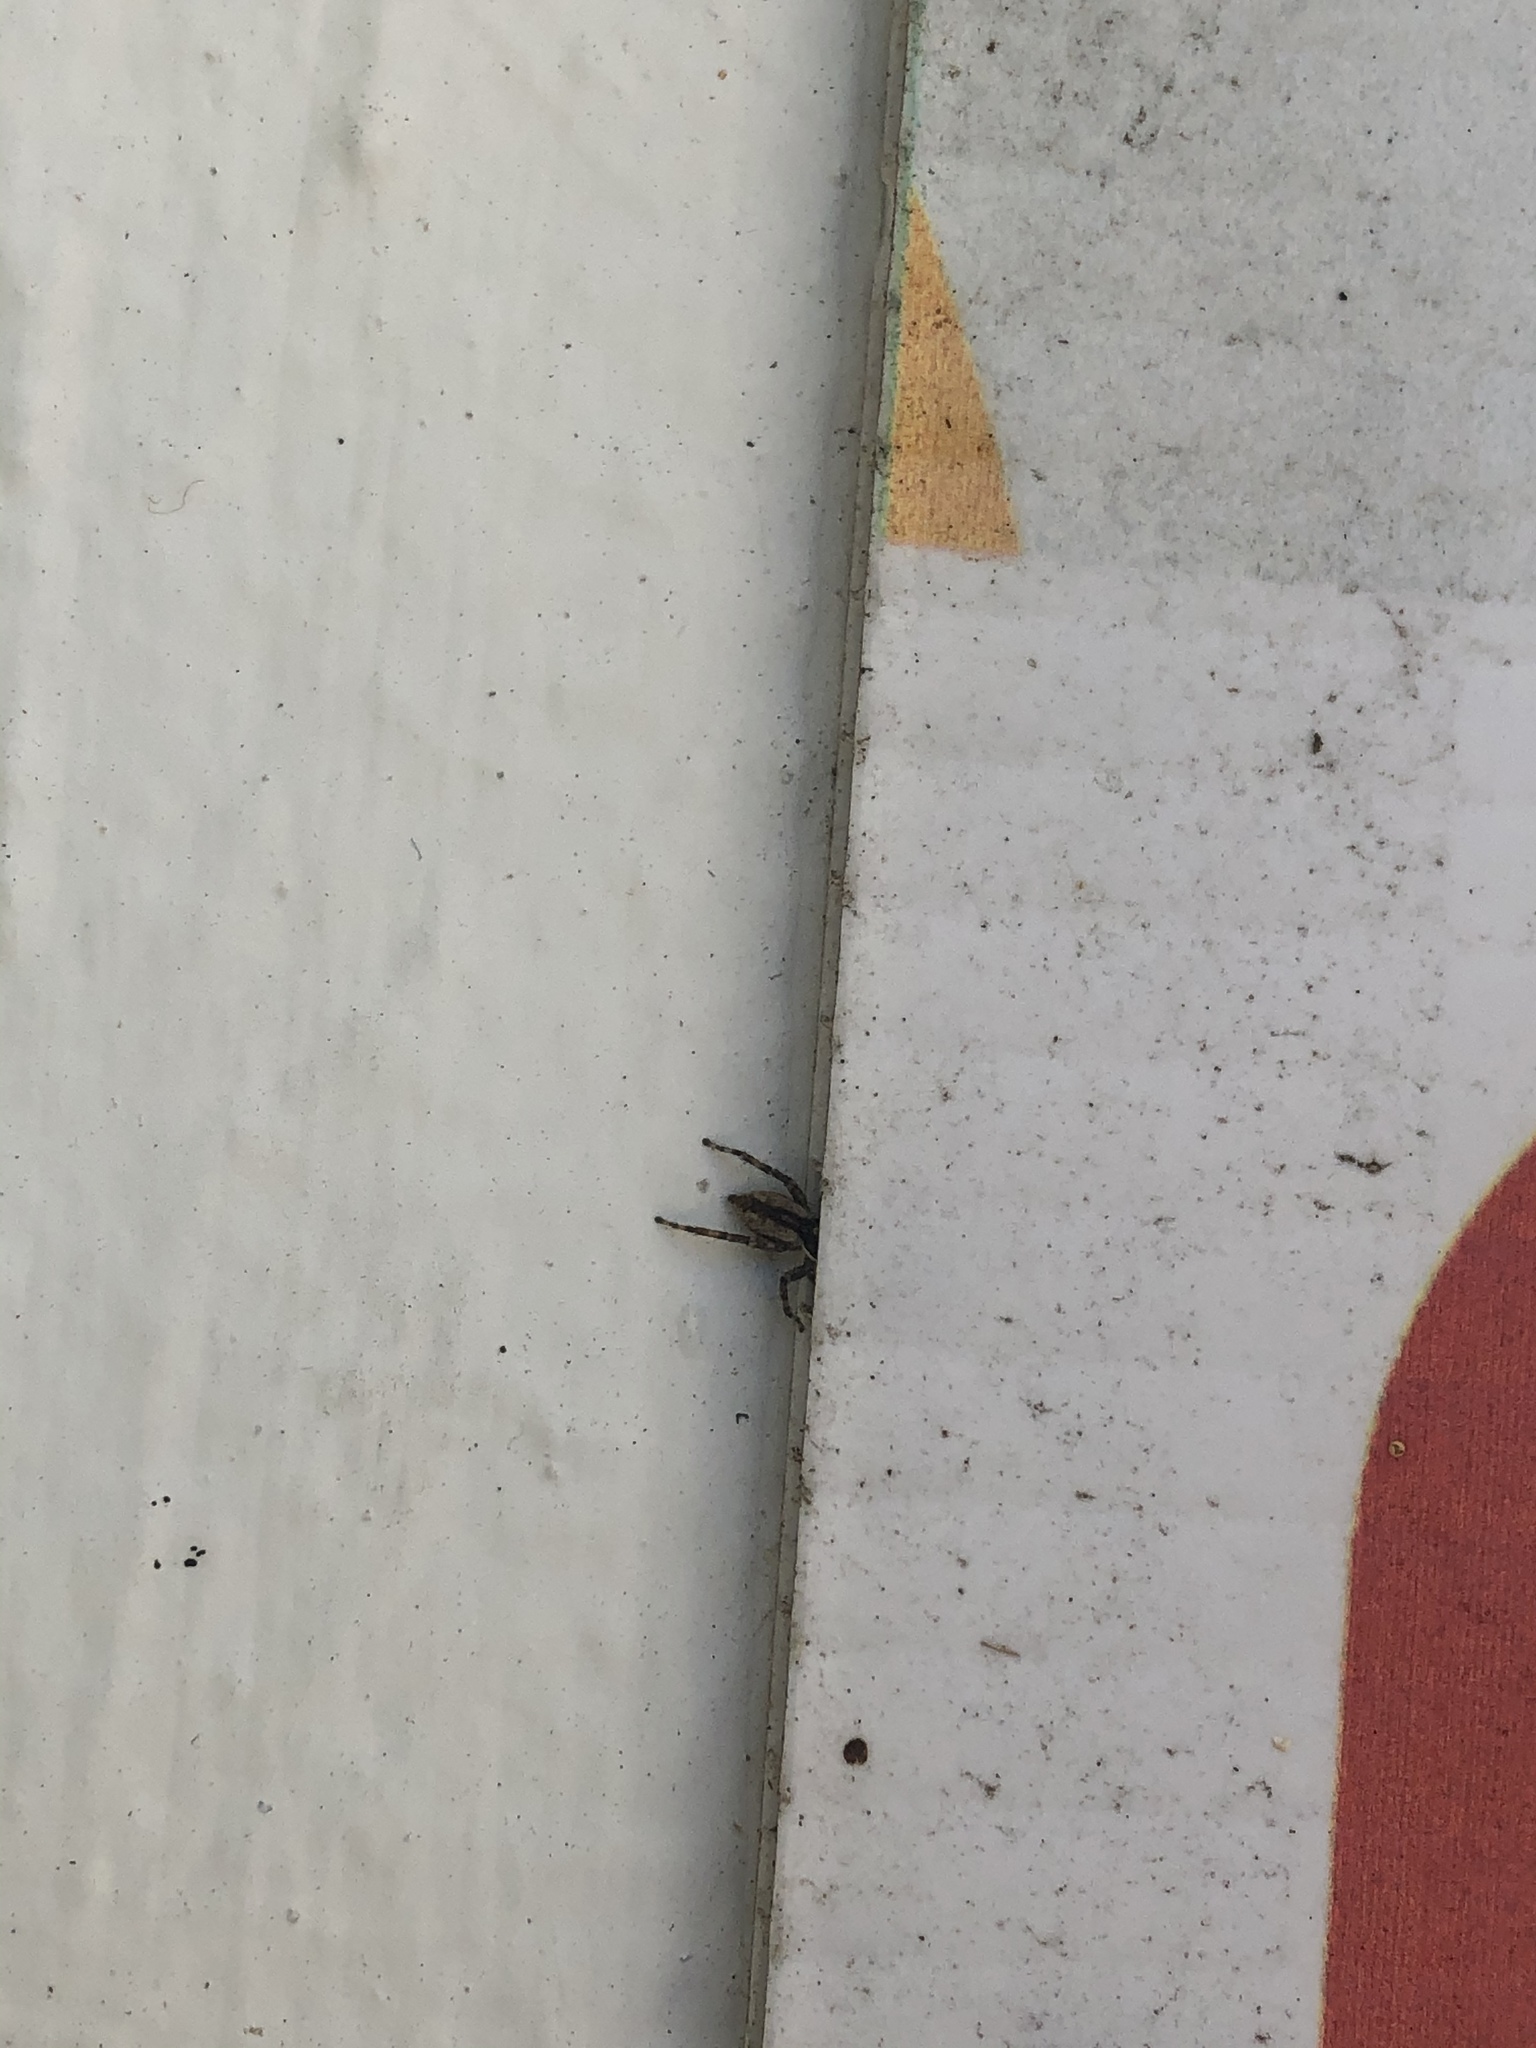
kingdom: Animalia
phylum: Arthropoda
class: Arachnida
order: Araneae
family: Salticidae
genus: Menemerus
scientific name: Menemerus bivittatus
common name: Gray wall jumper
